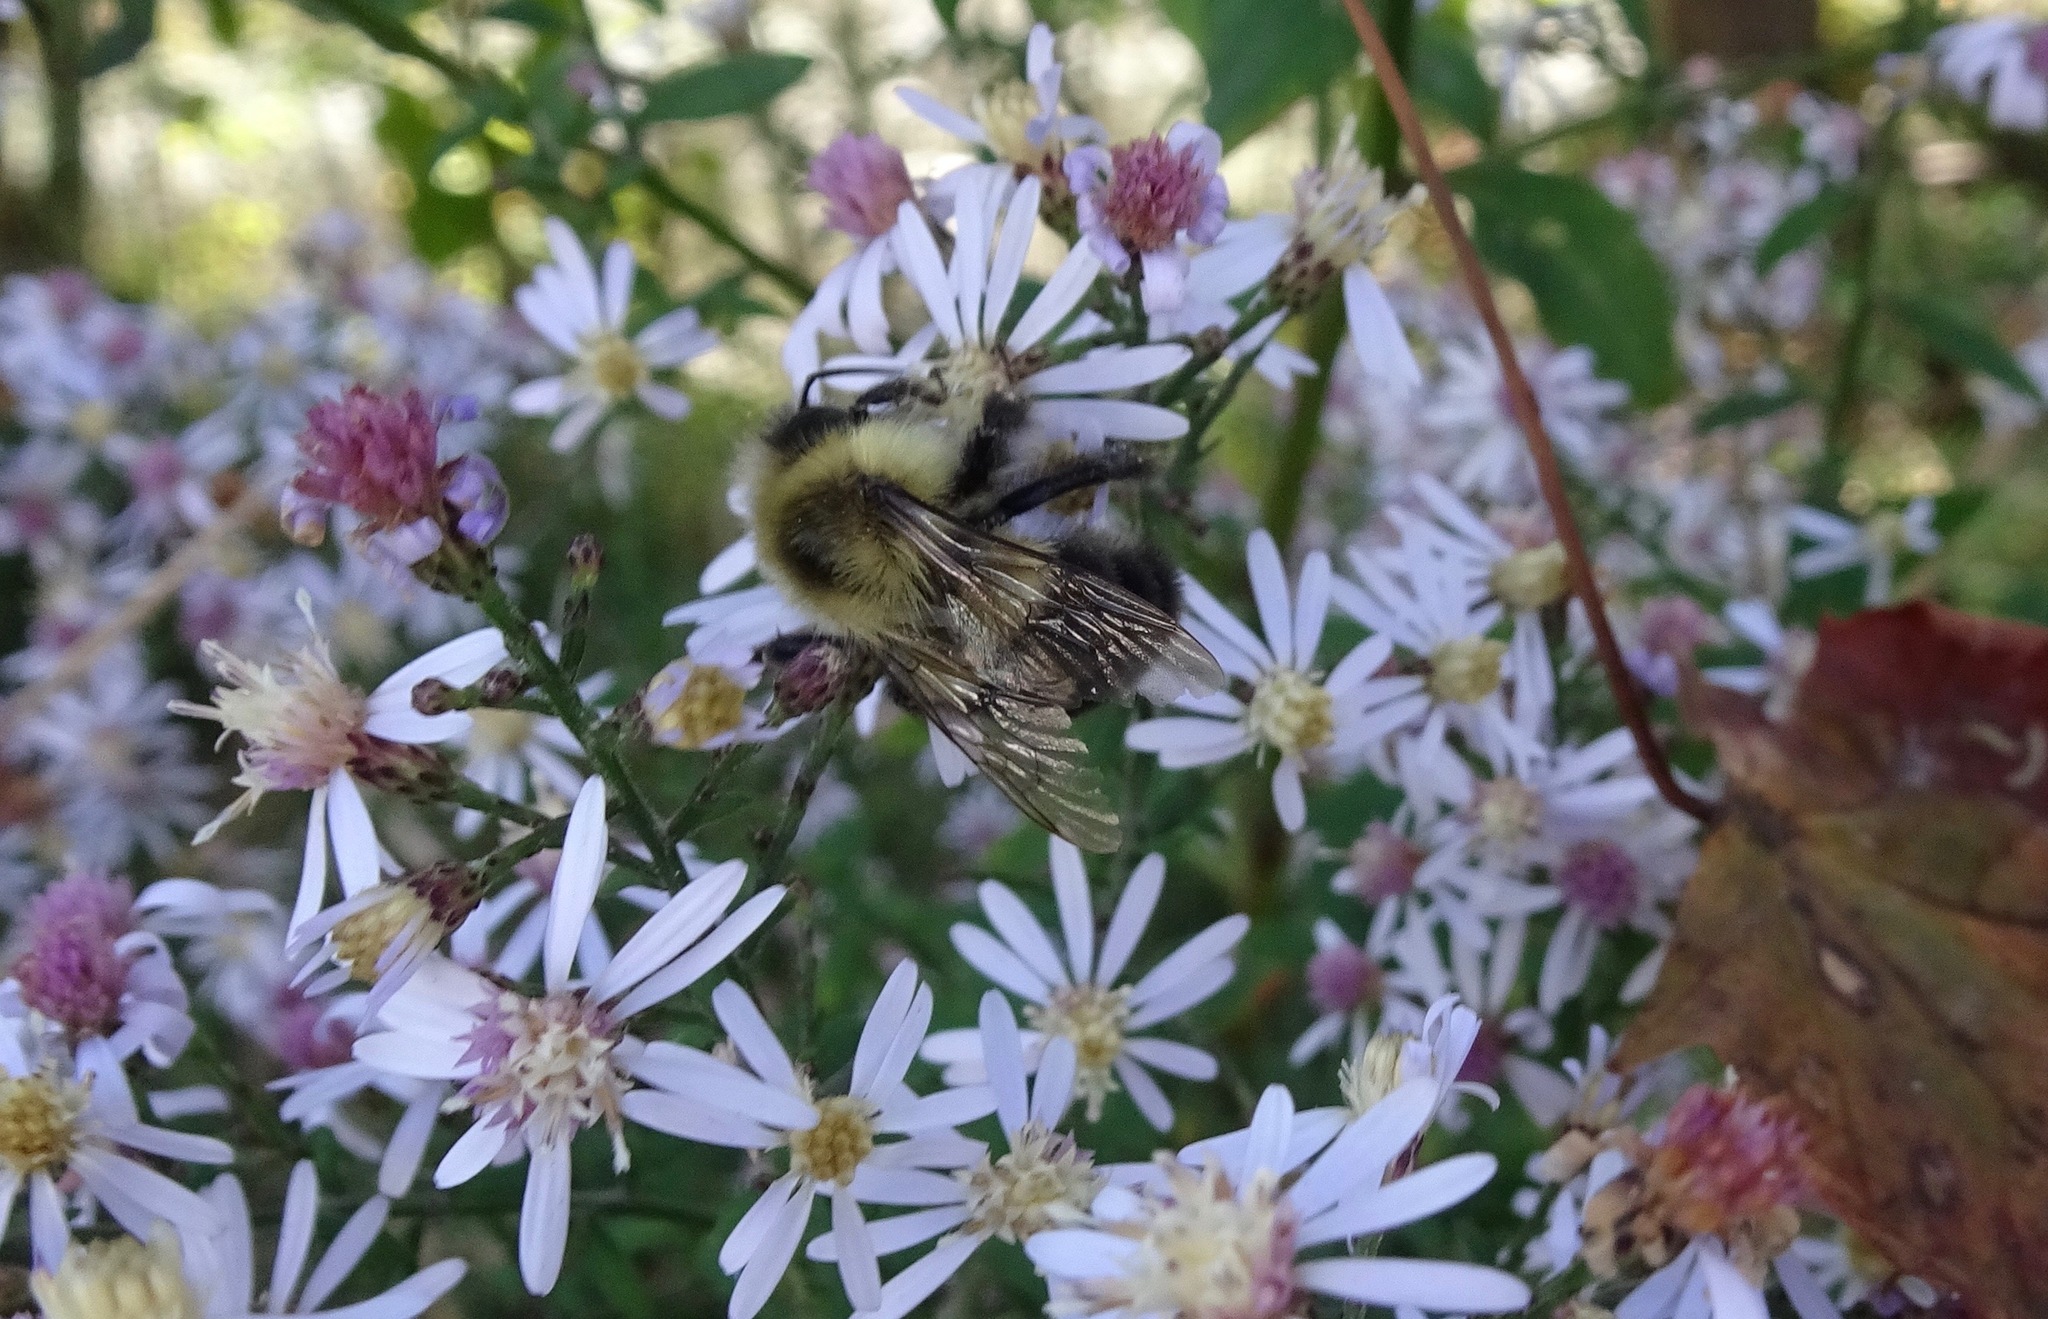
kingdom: Animalia
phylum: Arthropoda
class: Insecta
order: Hymenoptera
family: Apidae
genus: Bombus
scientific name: Bombus impatiens
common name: Common eastern bumble bee
